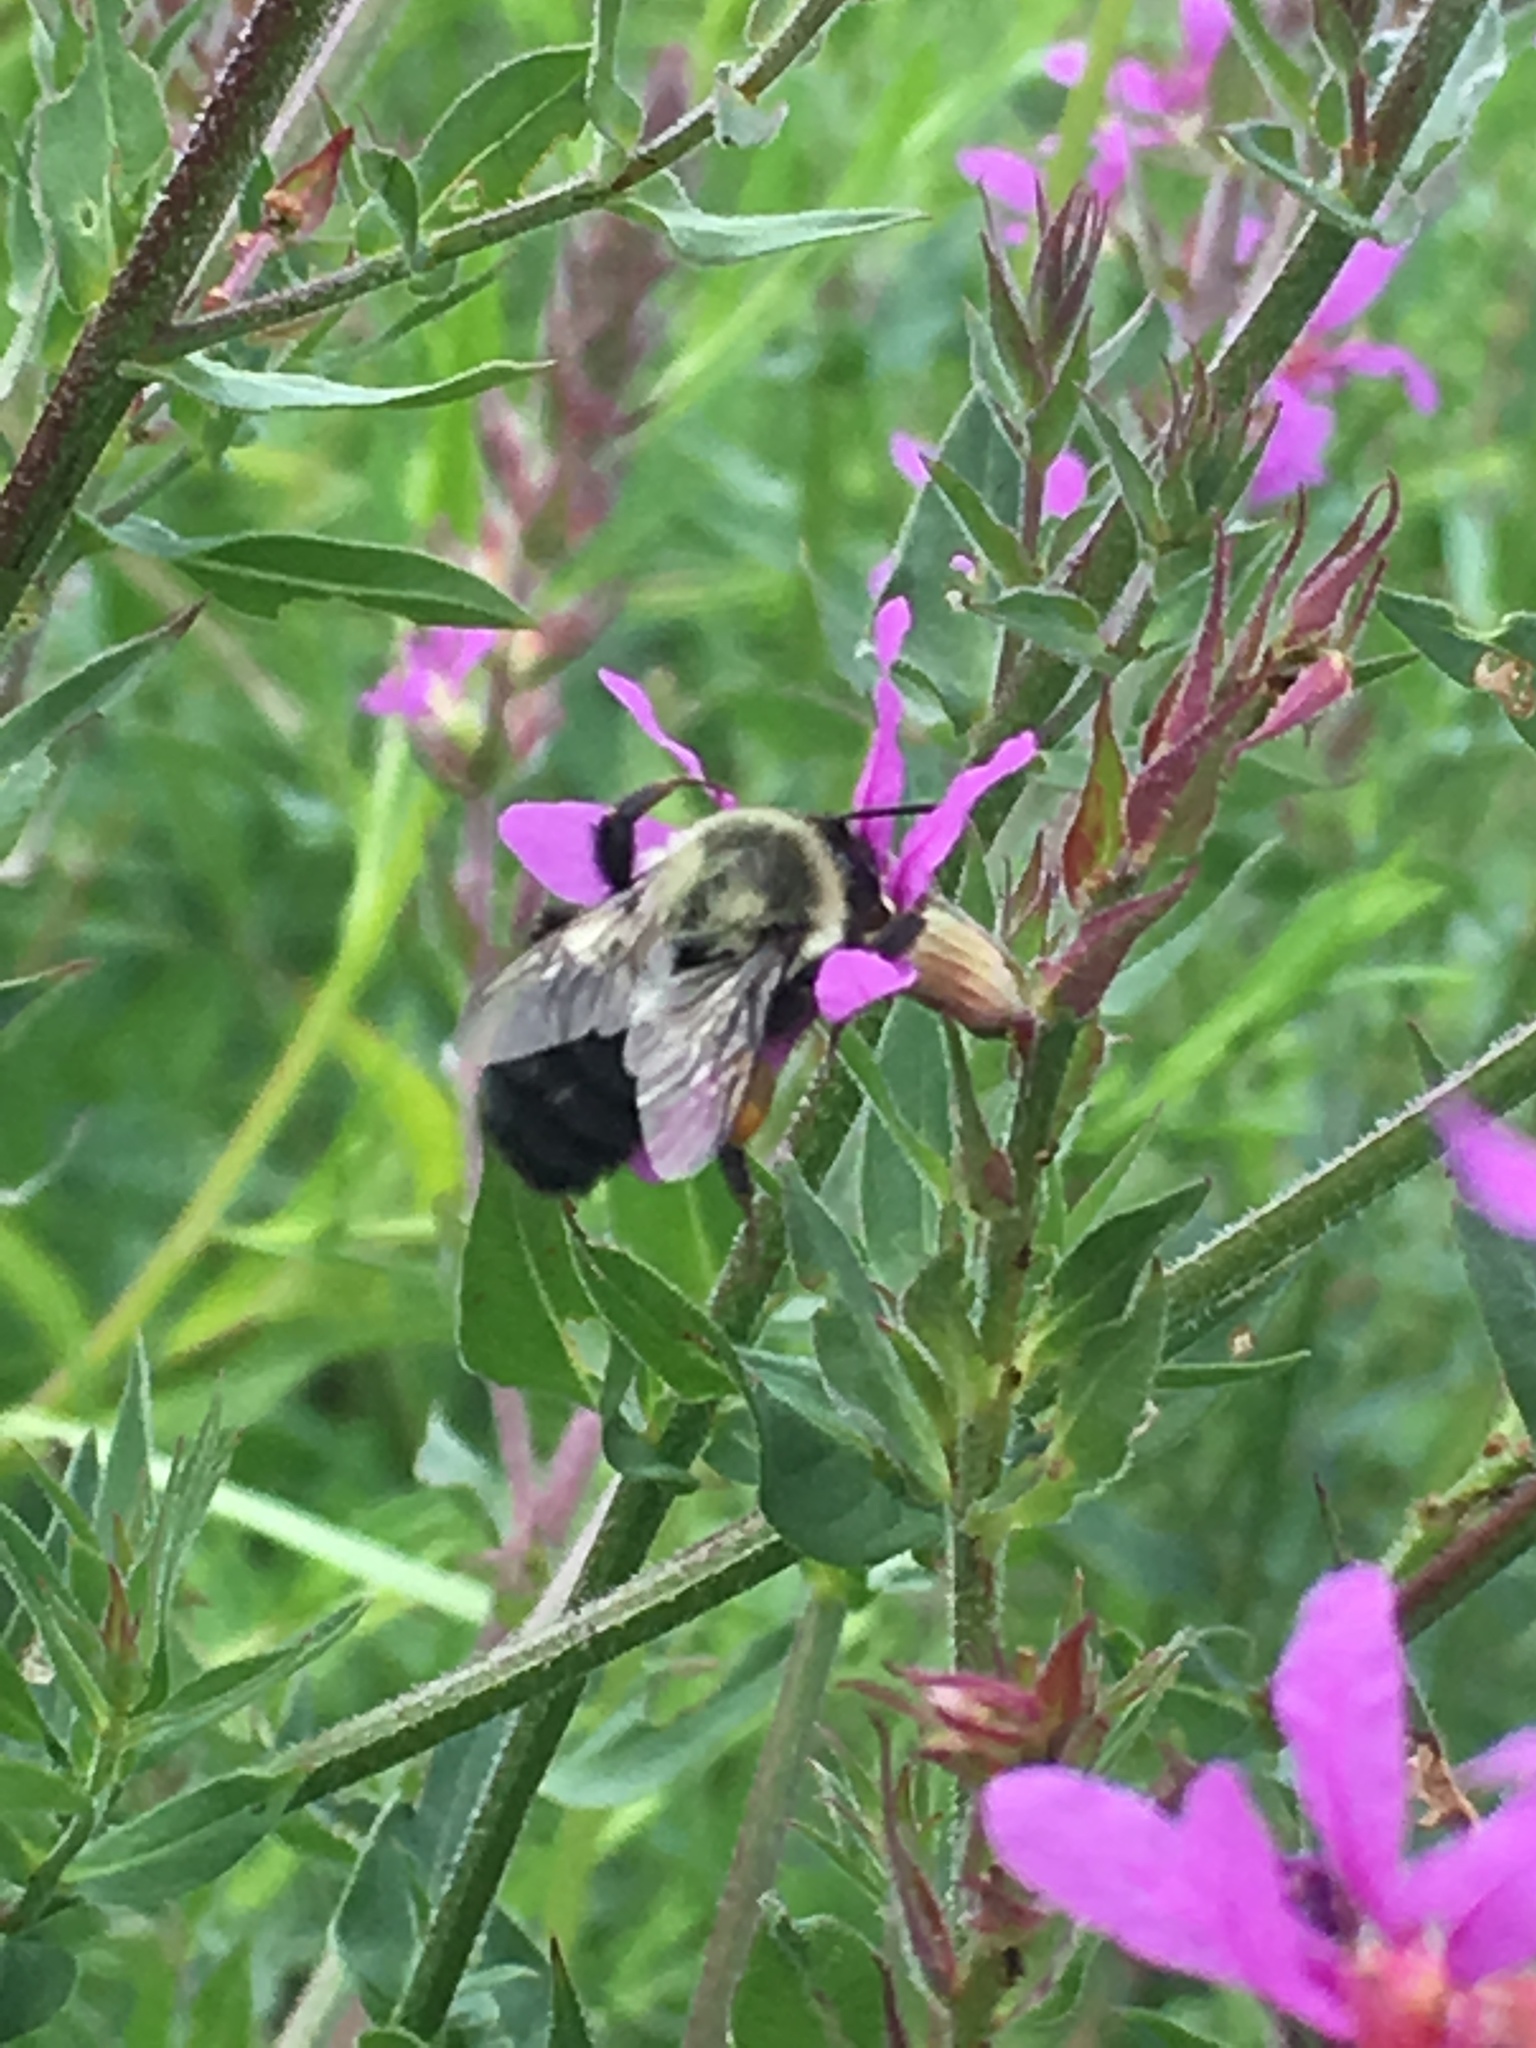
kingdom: Animalia
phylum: Arthropoda
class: Insecta
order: Hymenoptera
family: Apidae
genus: Bombus
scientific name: Bombus impatiens
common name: Common eastern bumble bee
